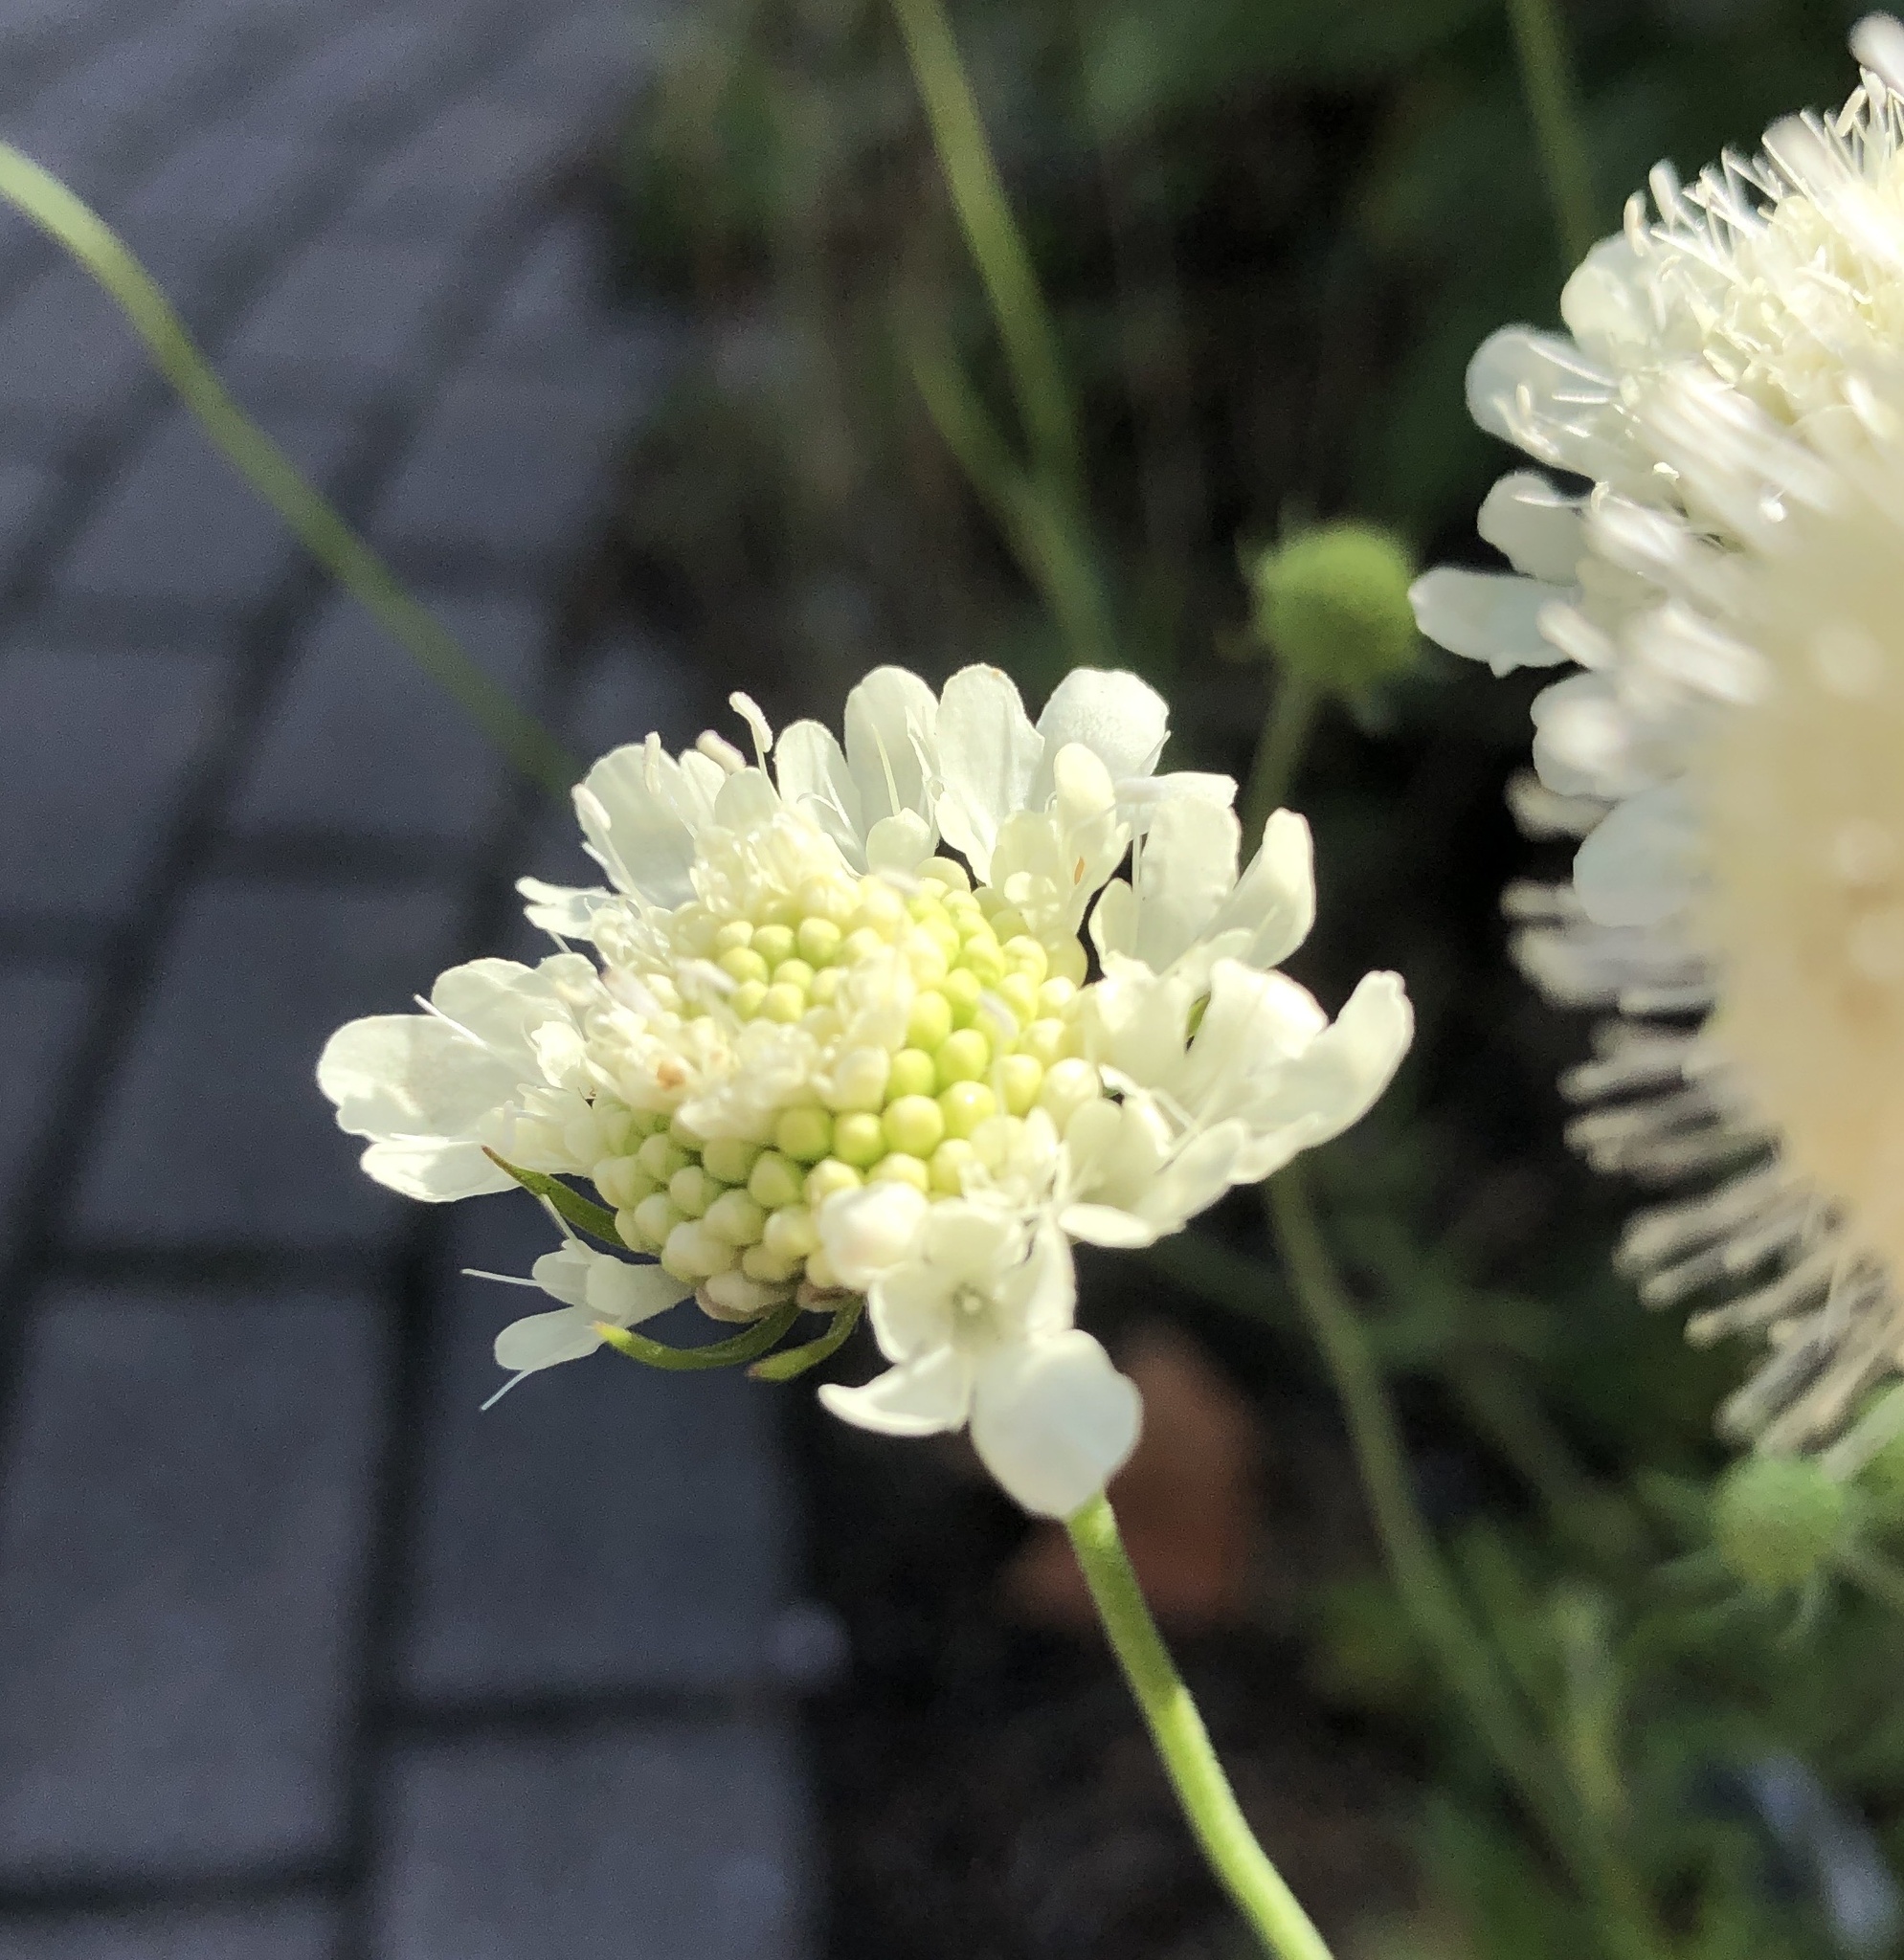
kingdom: Plantae
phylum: Tracheophyta
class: Magnoliopsida
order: Dipsacales
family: Caprifoliaceae
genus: Scabiosa
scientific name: Scabiosa ochroleuca
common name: Cream pincushions
